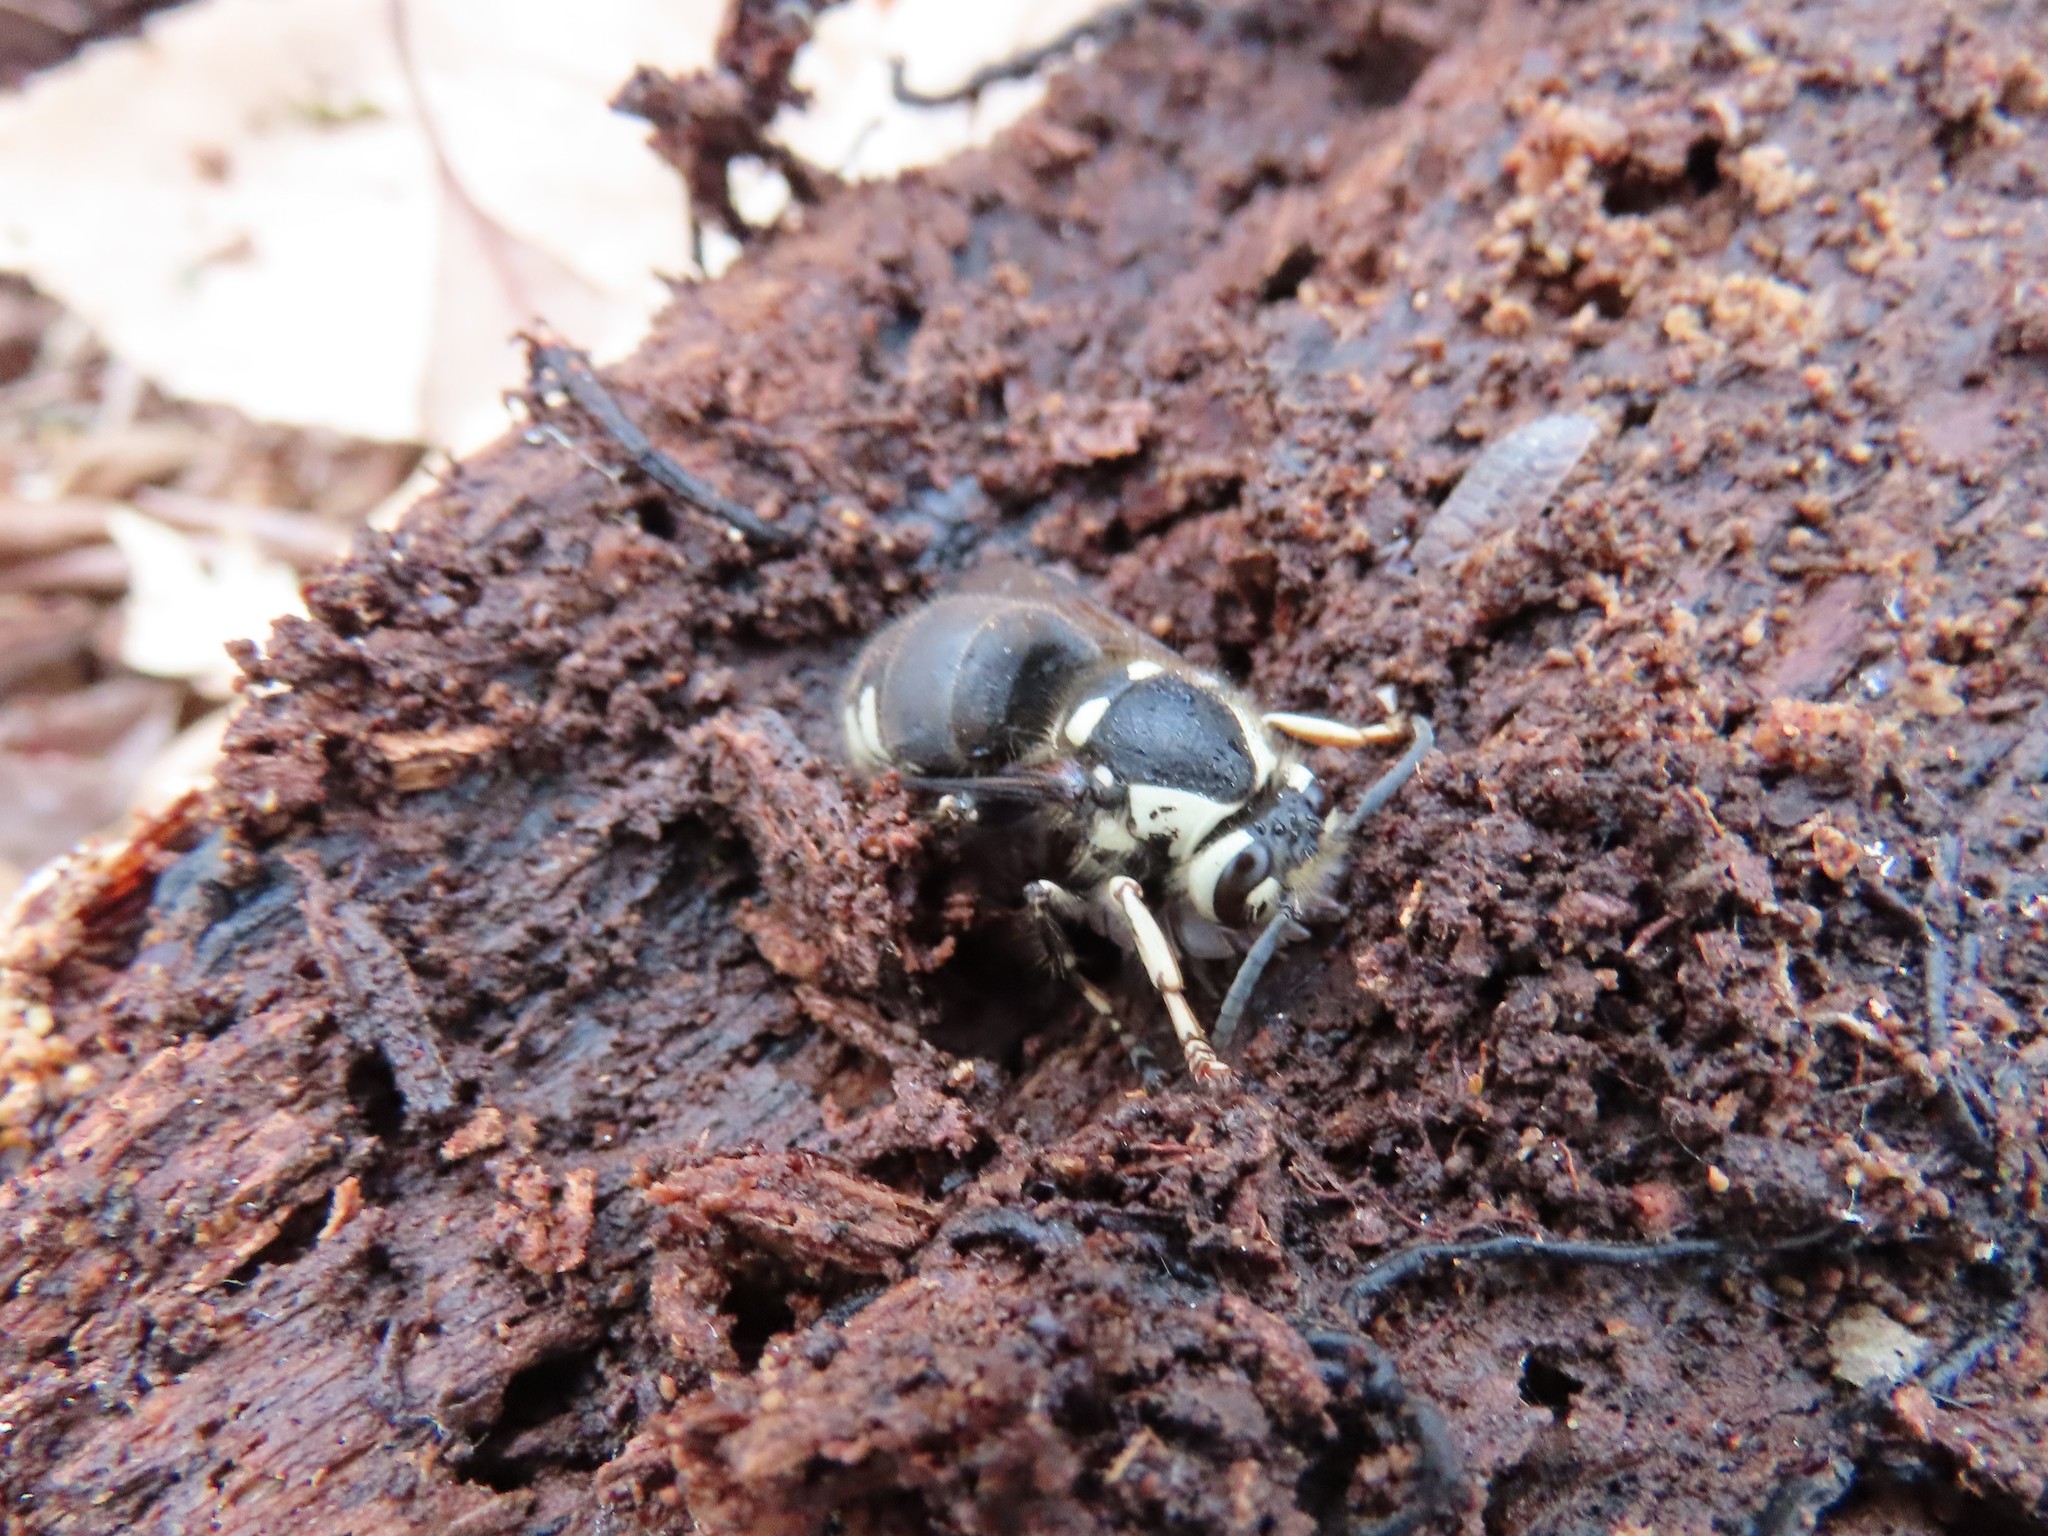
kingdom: Animalia
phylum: Arthropoda
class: Insecta
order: Hymenoptera
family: Vespidae
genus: Dolichovespula
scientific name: Dolichovespula maculata
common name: Bald-faced hornet
